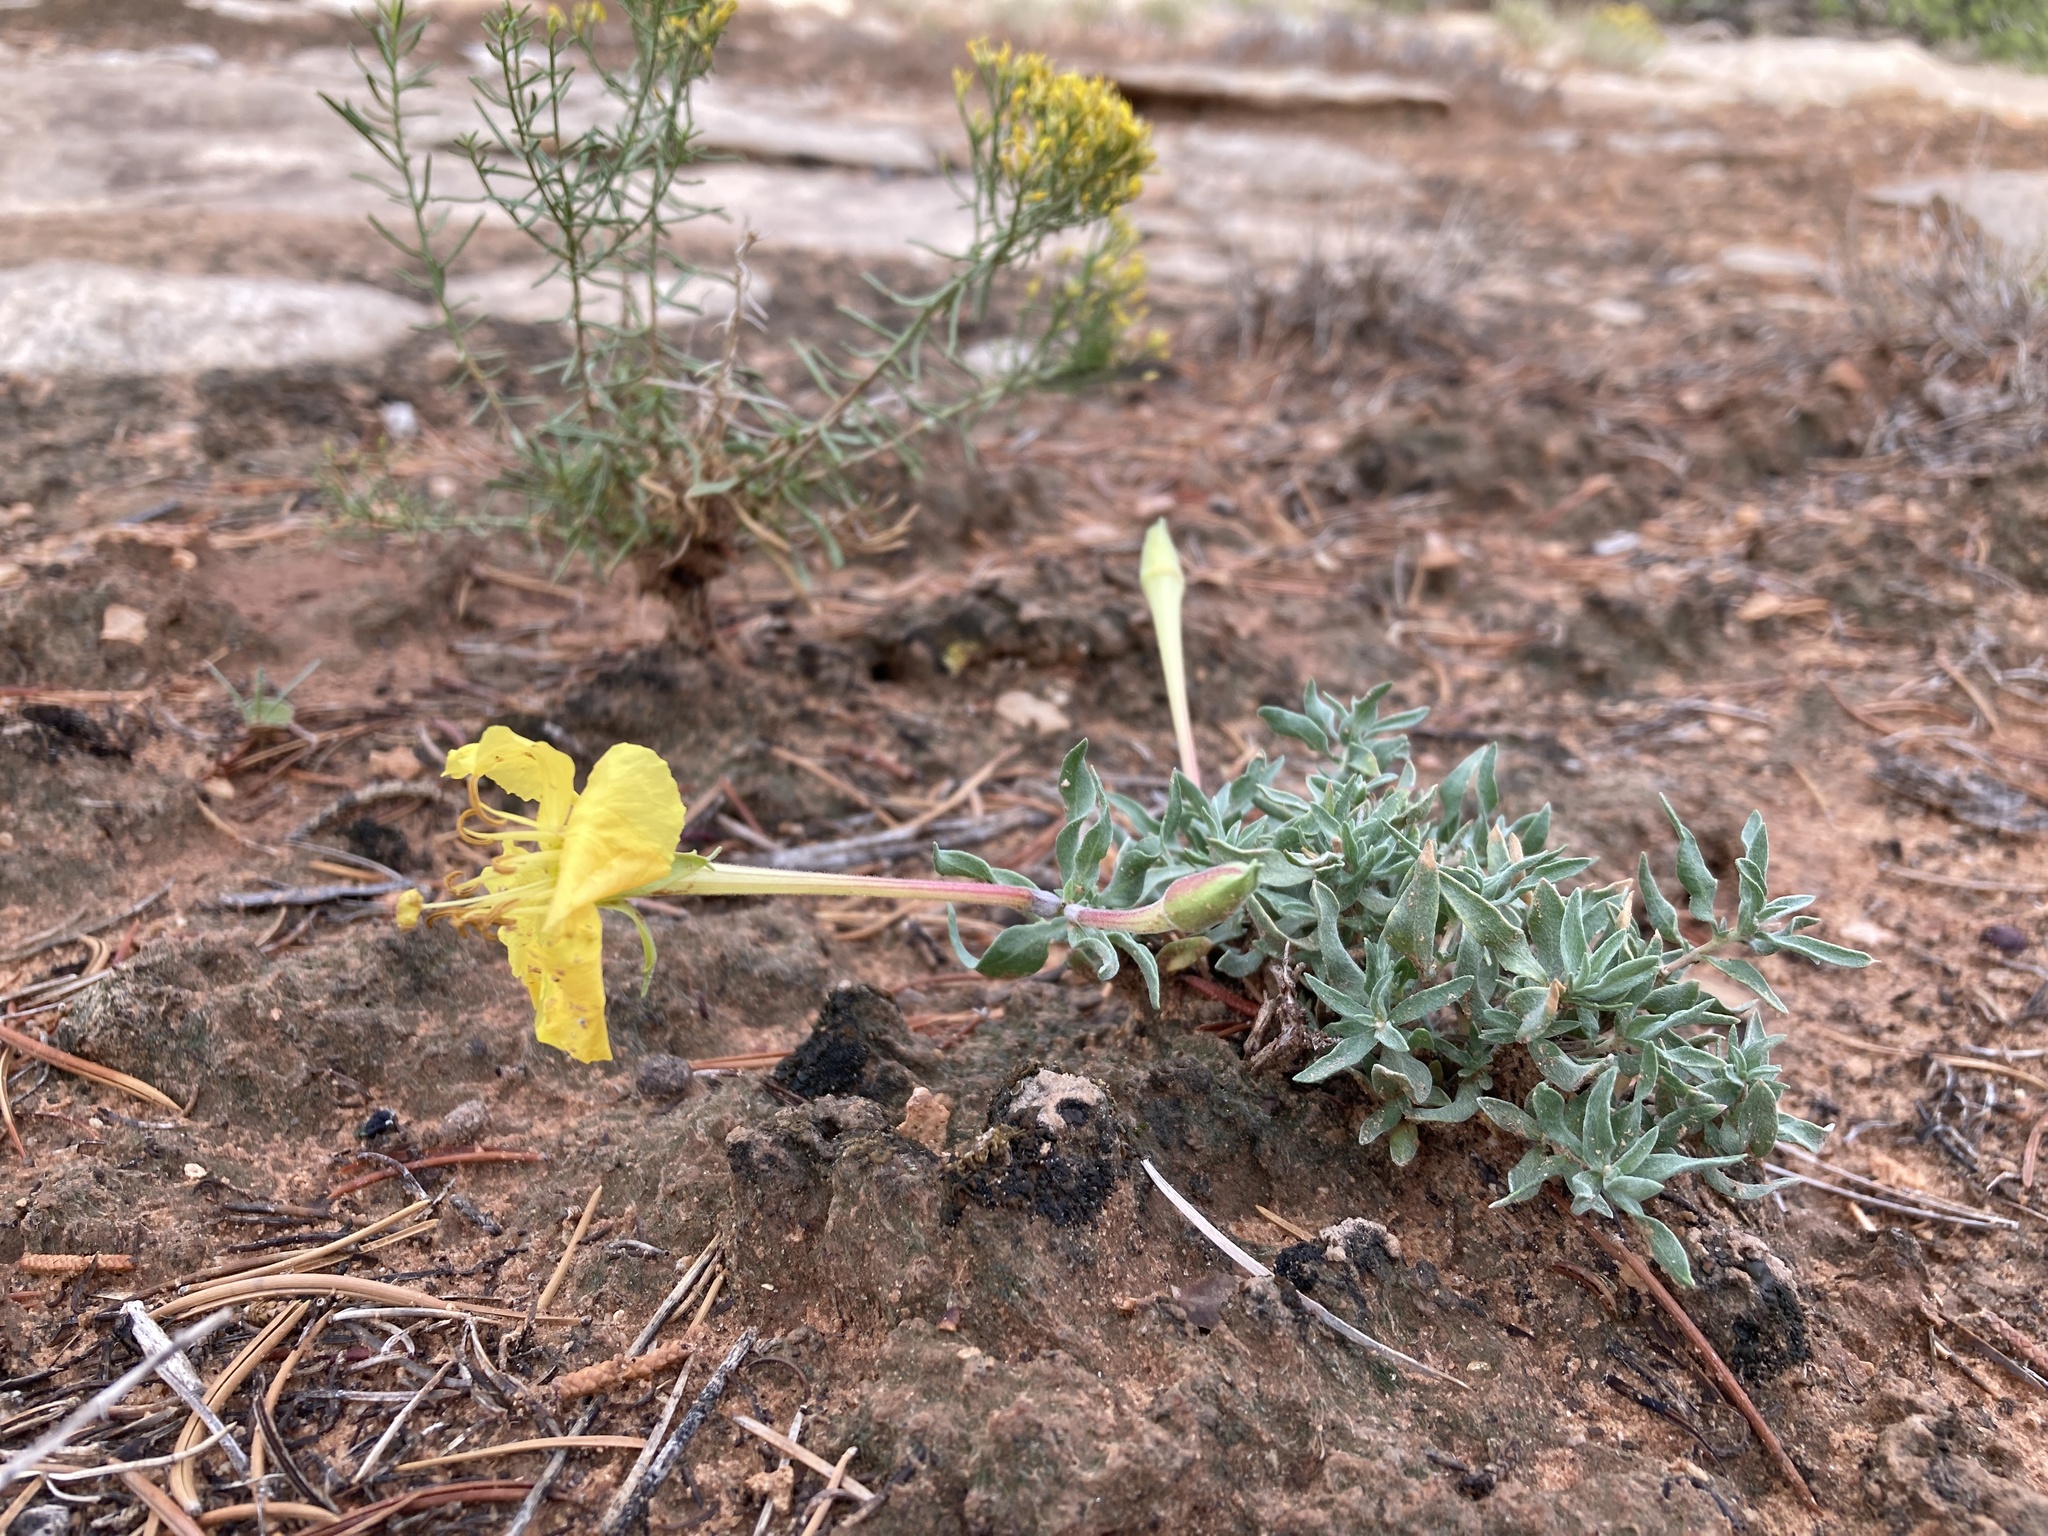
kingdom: Plantae
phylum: Tracheophyta
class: Magnoliopsida
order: Myrtales
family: Onagraceae
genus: Oenothera
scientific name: Oenothera lavandulifolia
